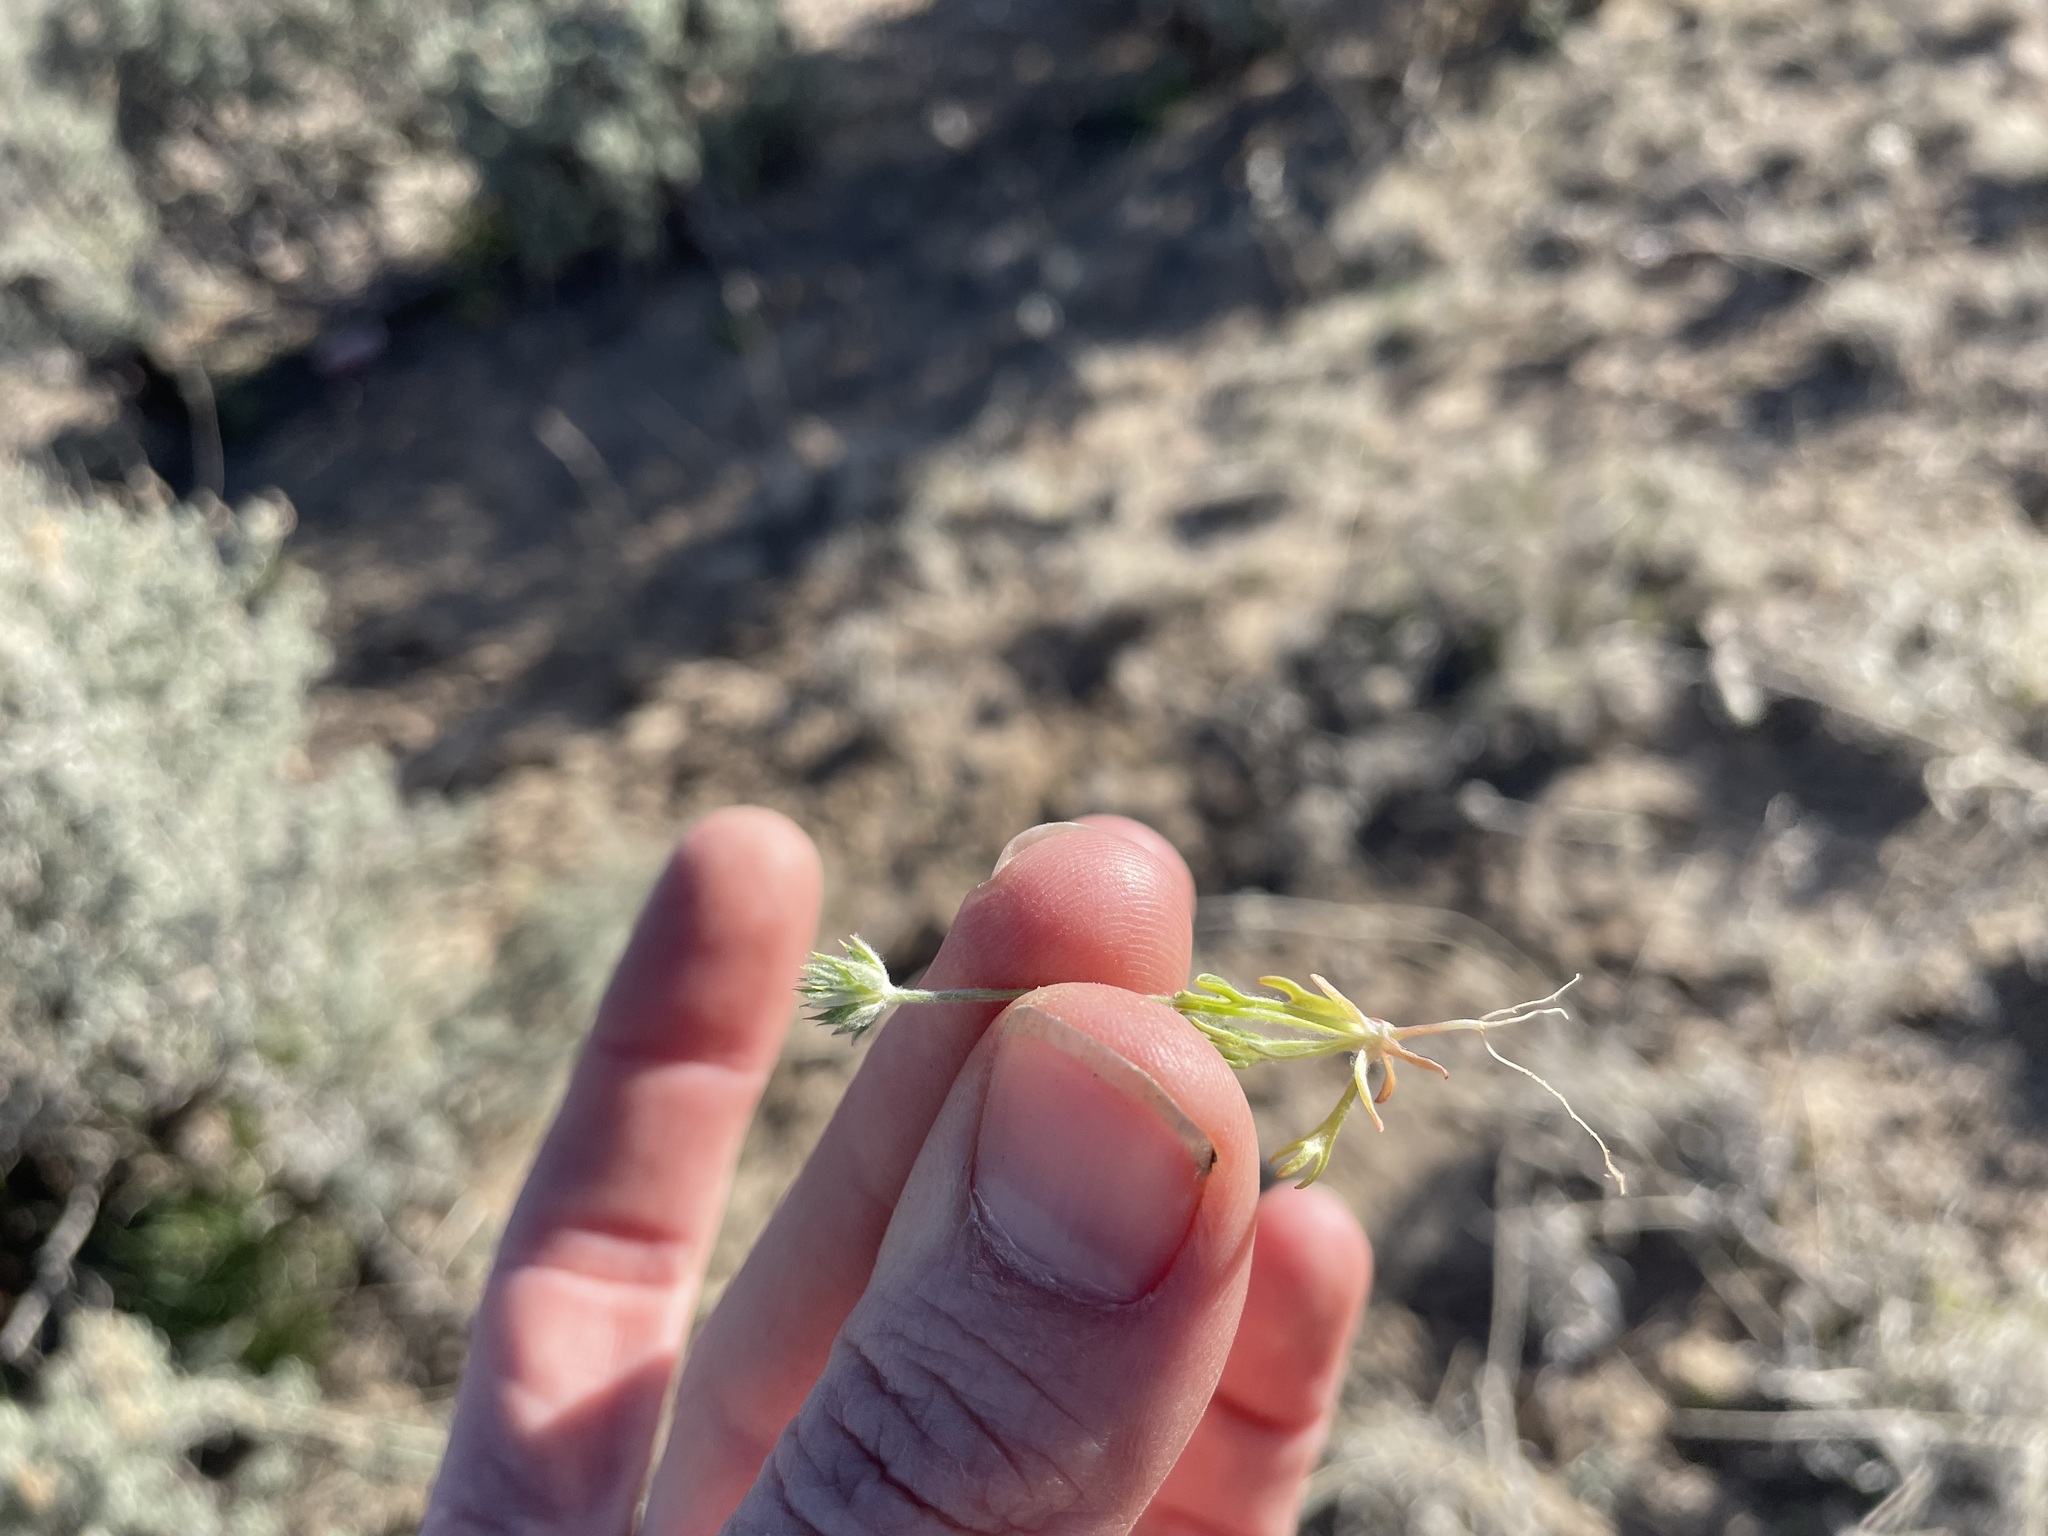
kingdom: Plantae
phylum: Tracheophyta
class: Magnoliopsida
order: Ranunculales
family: Ranunculaceae
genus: Ceratocephala
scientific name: Ceratocephala orthoceras
